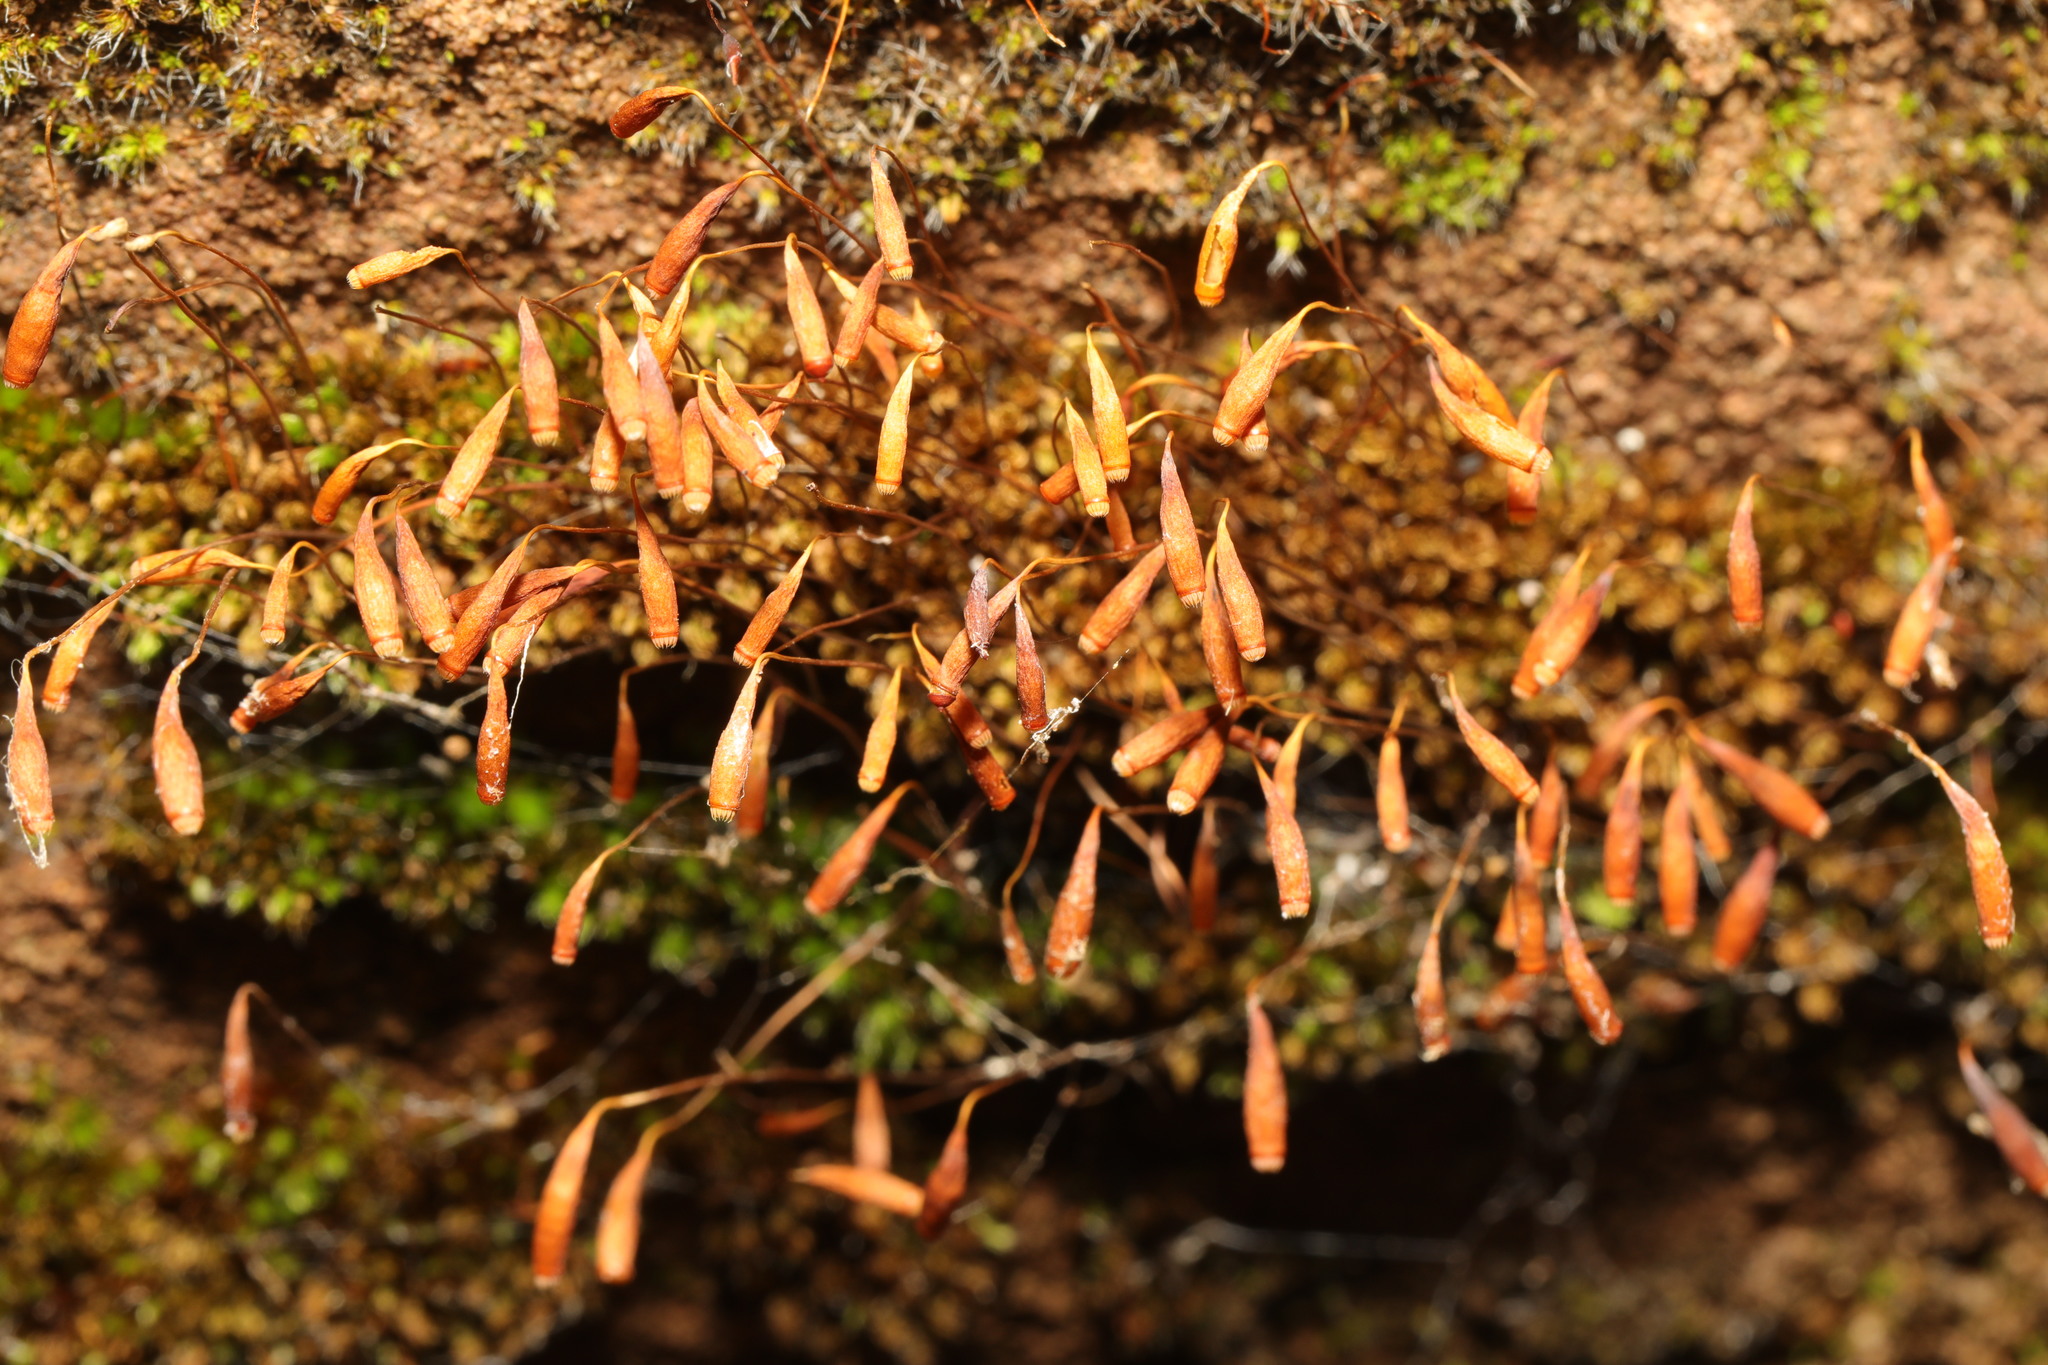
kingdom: Plantae
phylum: Bryophyta
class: Bryopsida
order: Bryales
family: Bryaceae
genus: Rosulabryum
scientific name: Rosulabryum capillare
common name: Capillary thread-moss
